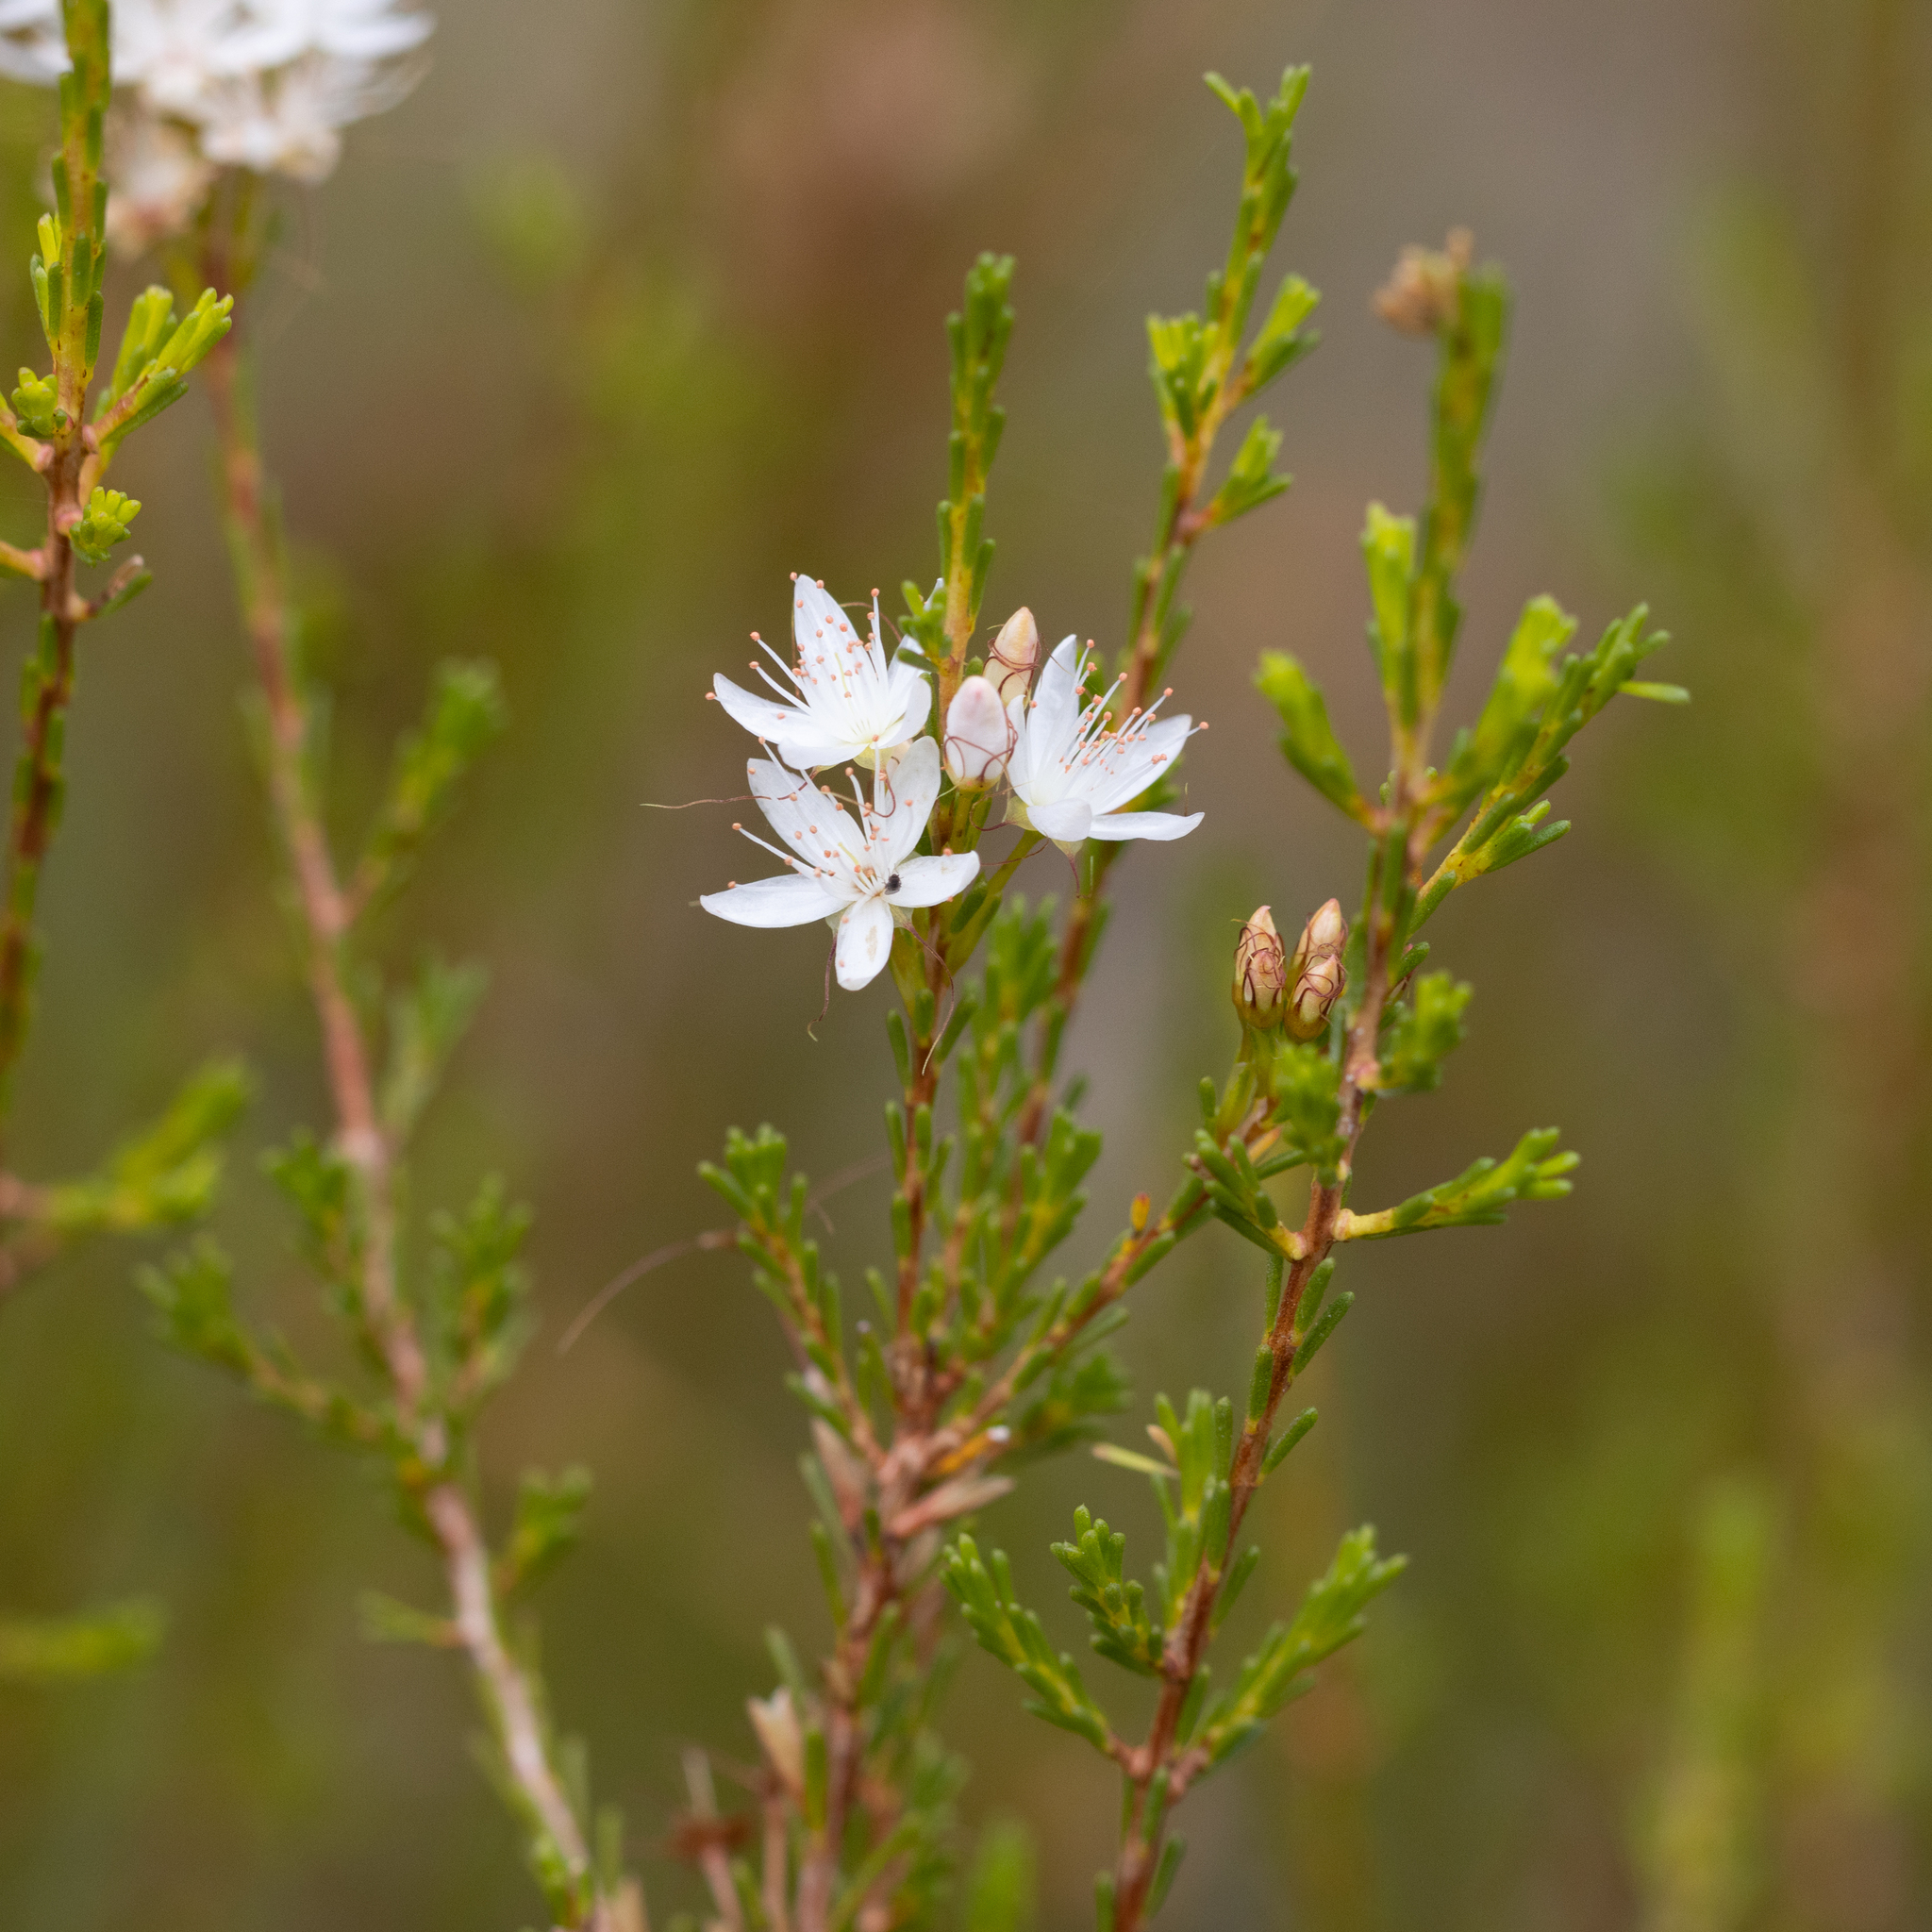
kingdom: Plantae
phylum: Tracheophyta
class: Magnoliopsida
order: Myrtales
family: Myrtaceae
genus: Calytrix
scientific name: Calytrix tetragona
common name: Common fringe myrtle
